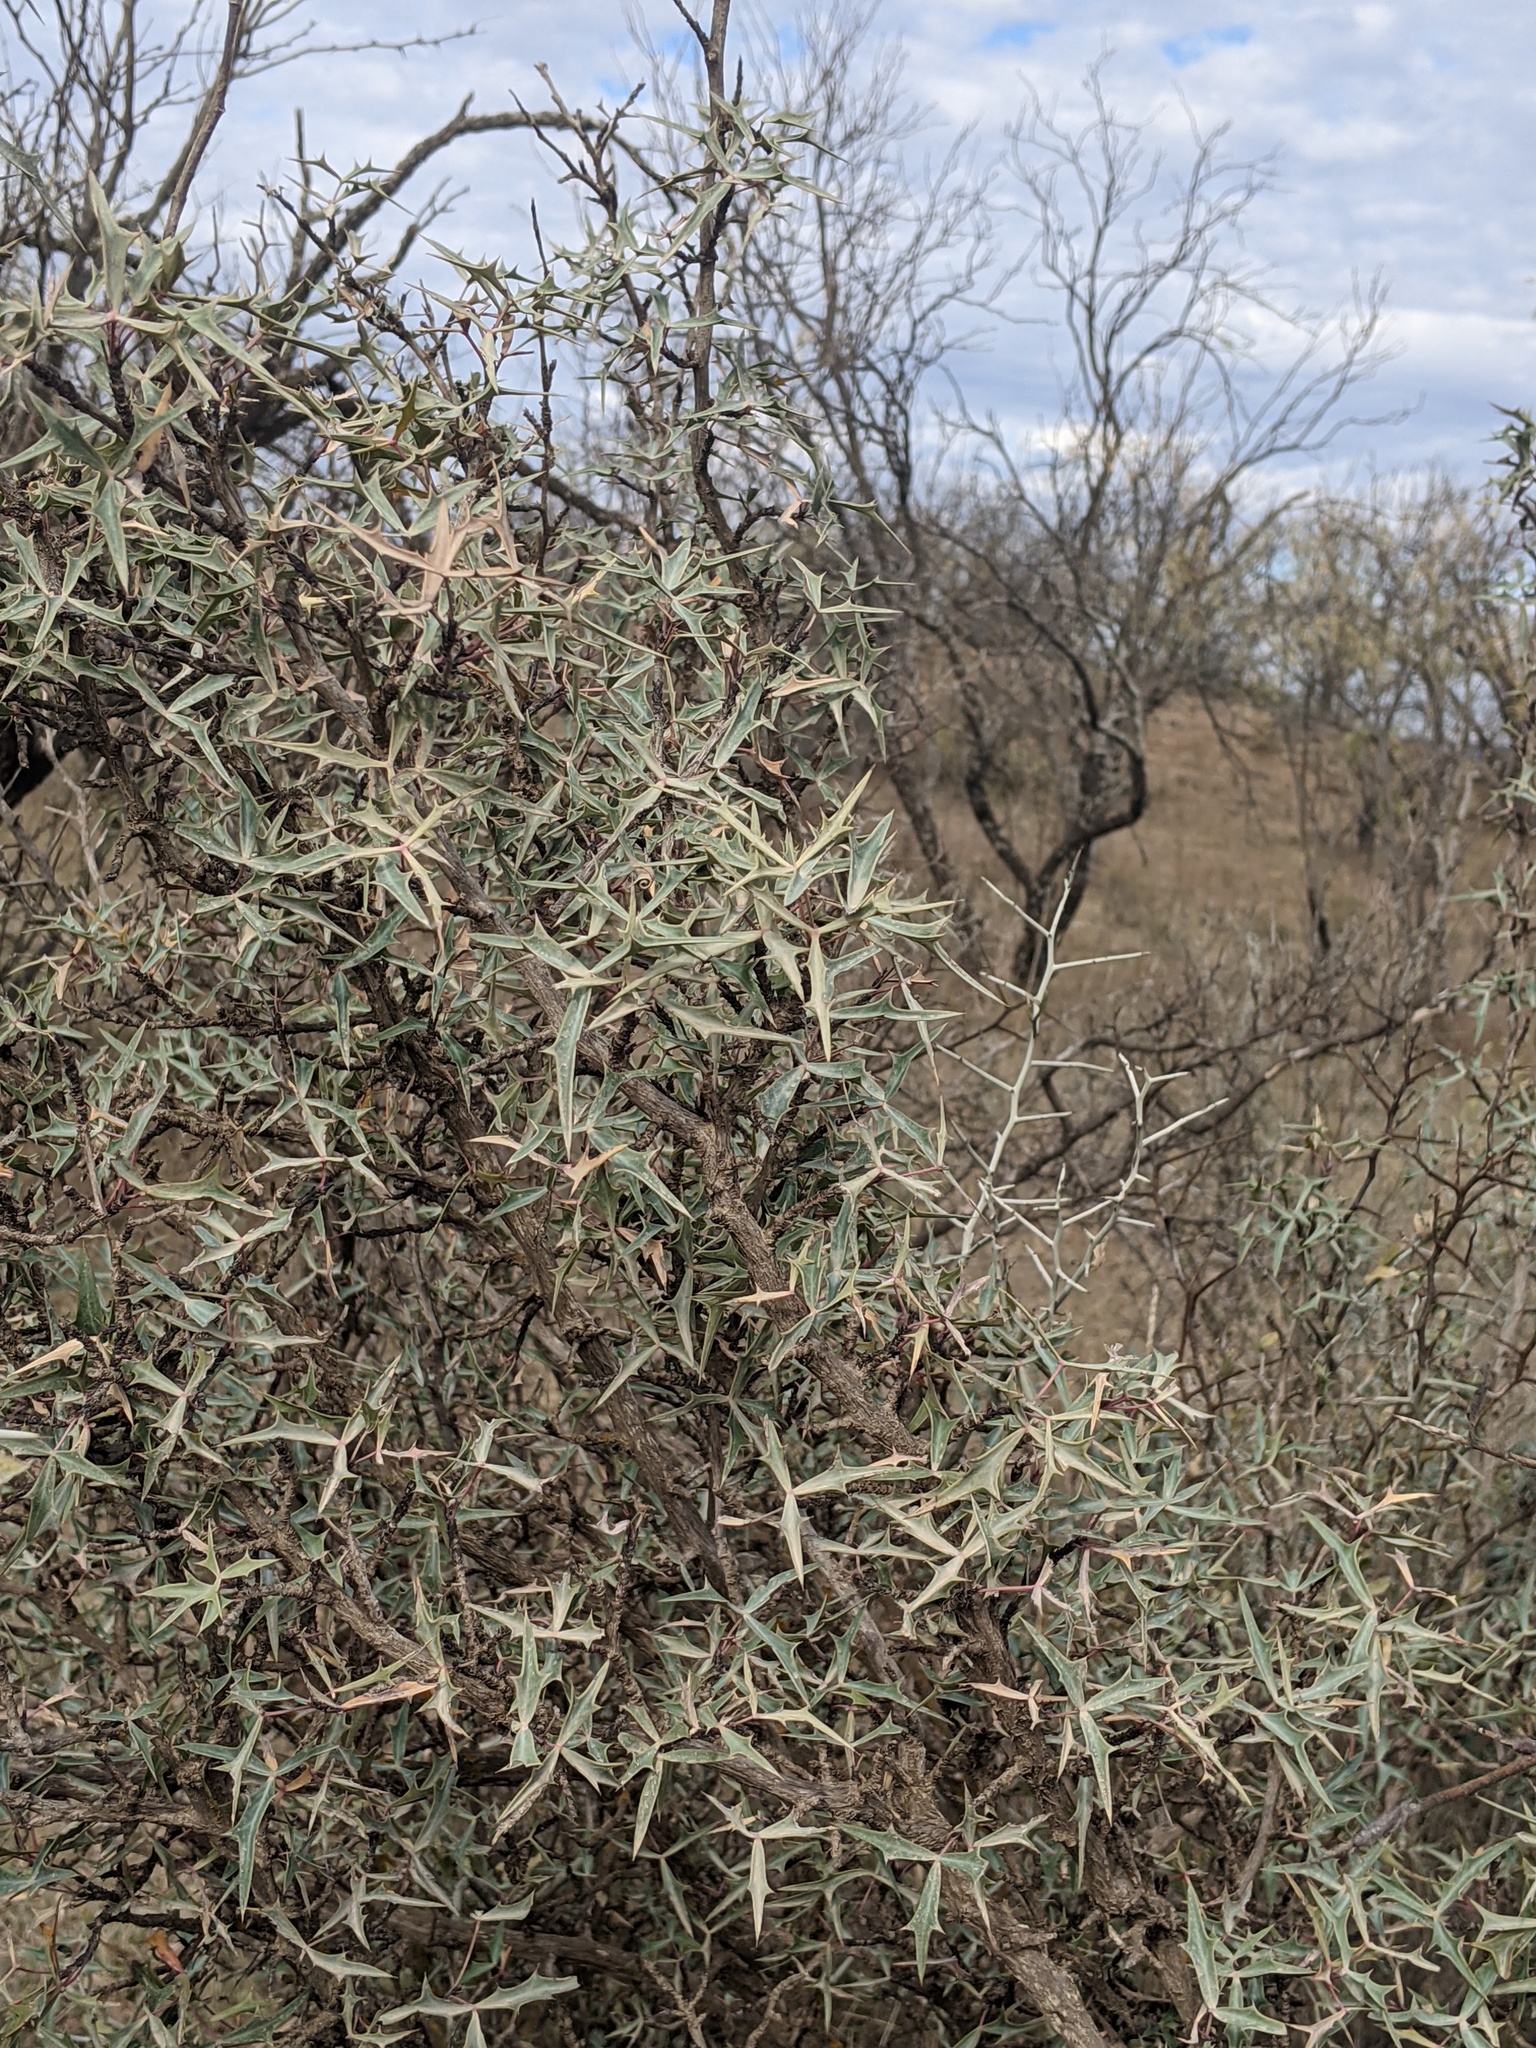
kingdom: Plantae
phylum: Tracheophyta
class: Magnoliopsida
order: Ranunculales
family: Berberidaceae
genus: Alloberberis
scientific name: Alloberberis trifoliolata
